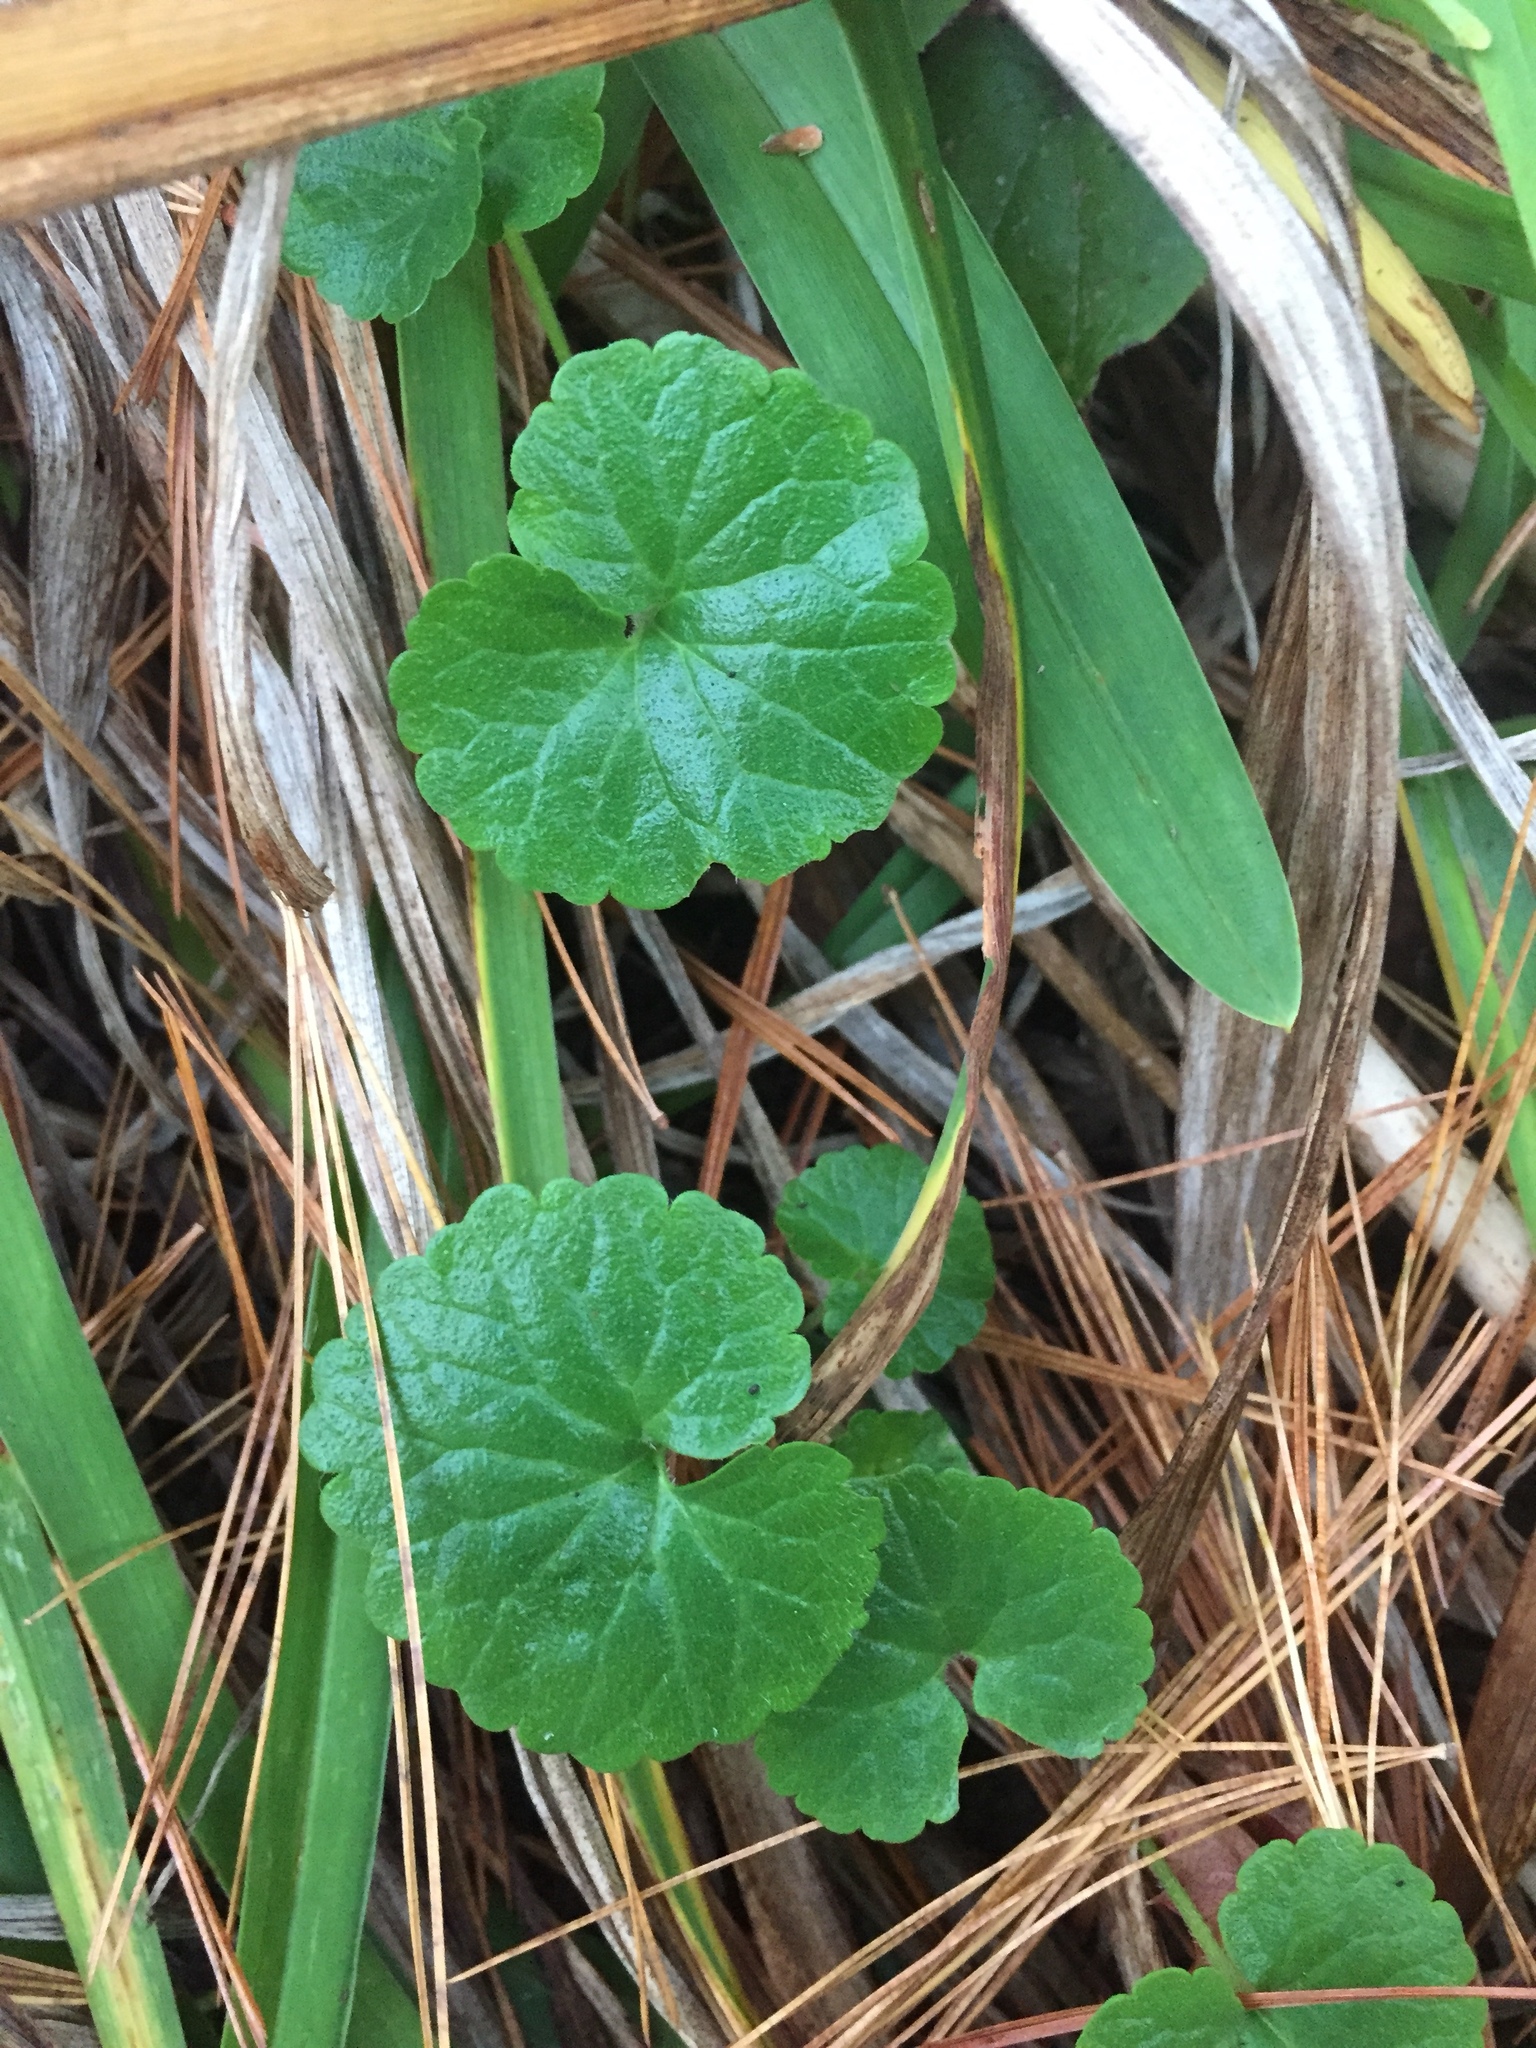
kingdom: Plantae
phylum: Tracheophyta
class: Magnoliopsida
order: Lamiales
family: Lamiaceae
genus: Glechoma
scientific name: Glechoma hederacea
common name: Ground ivy
